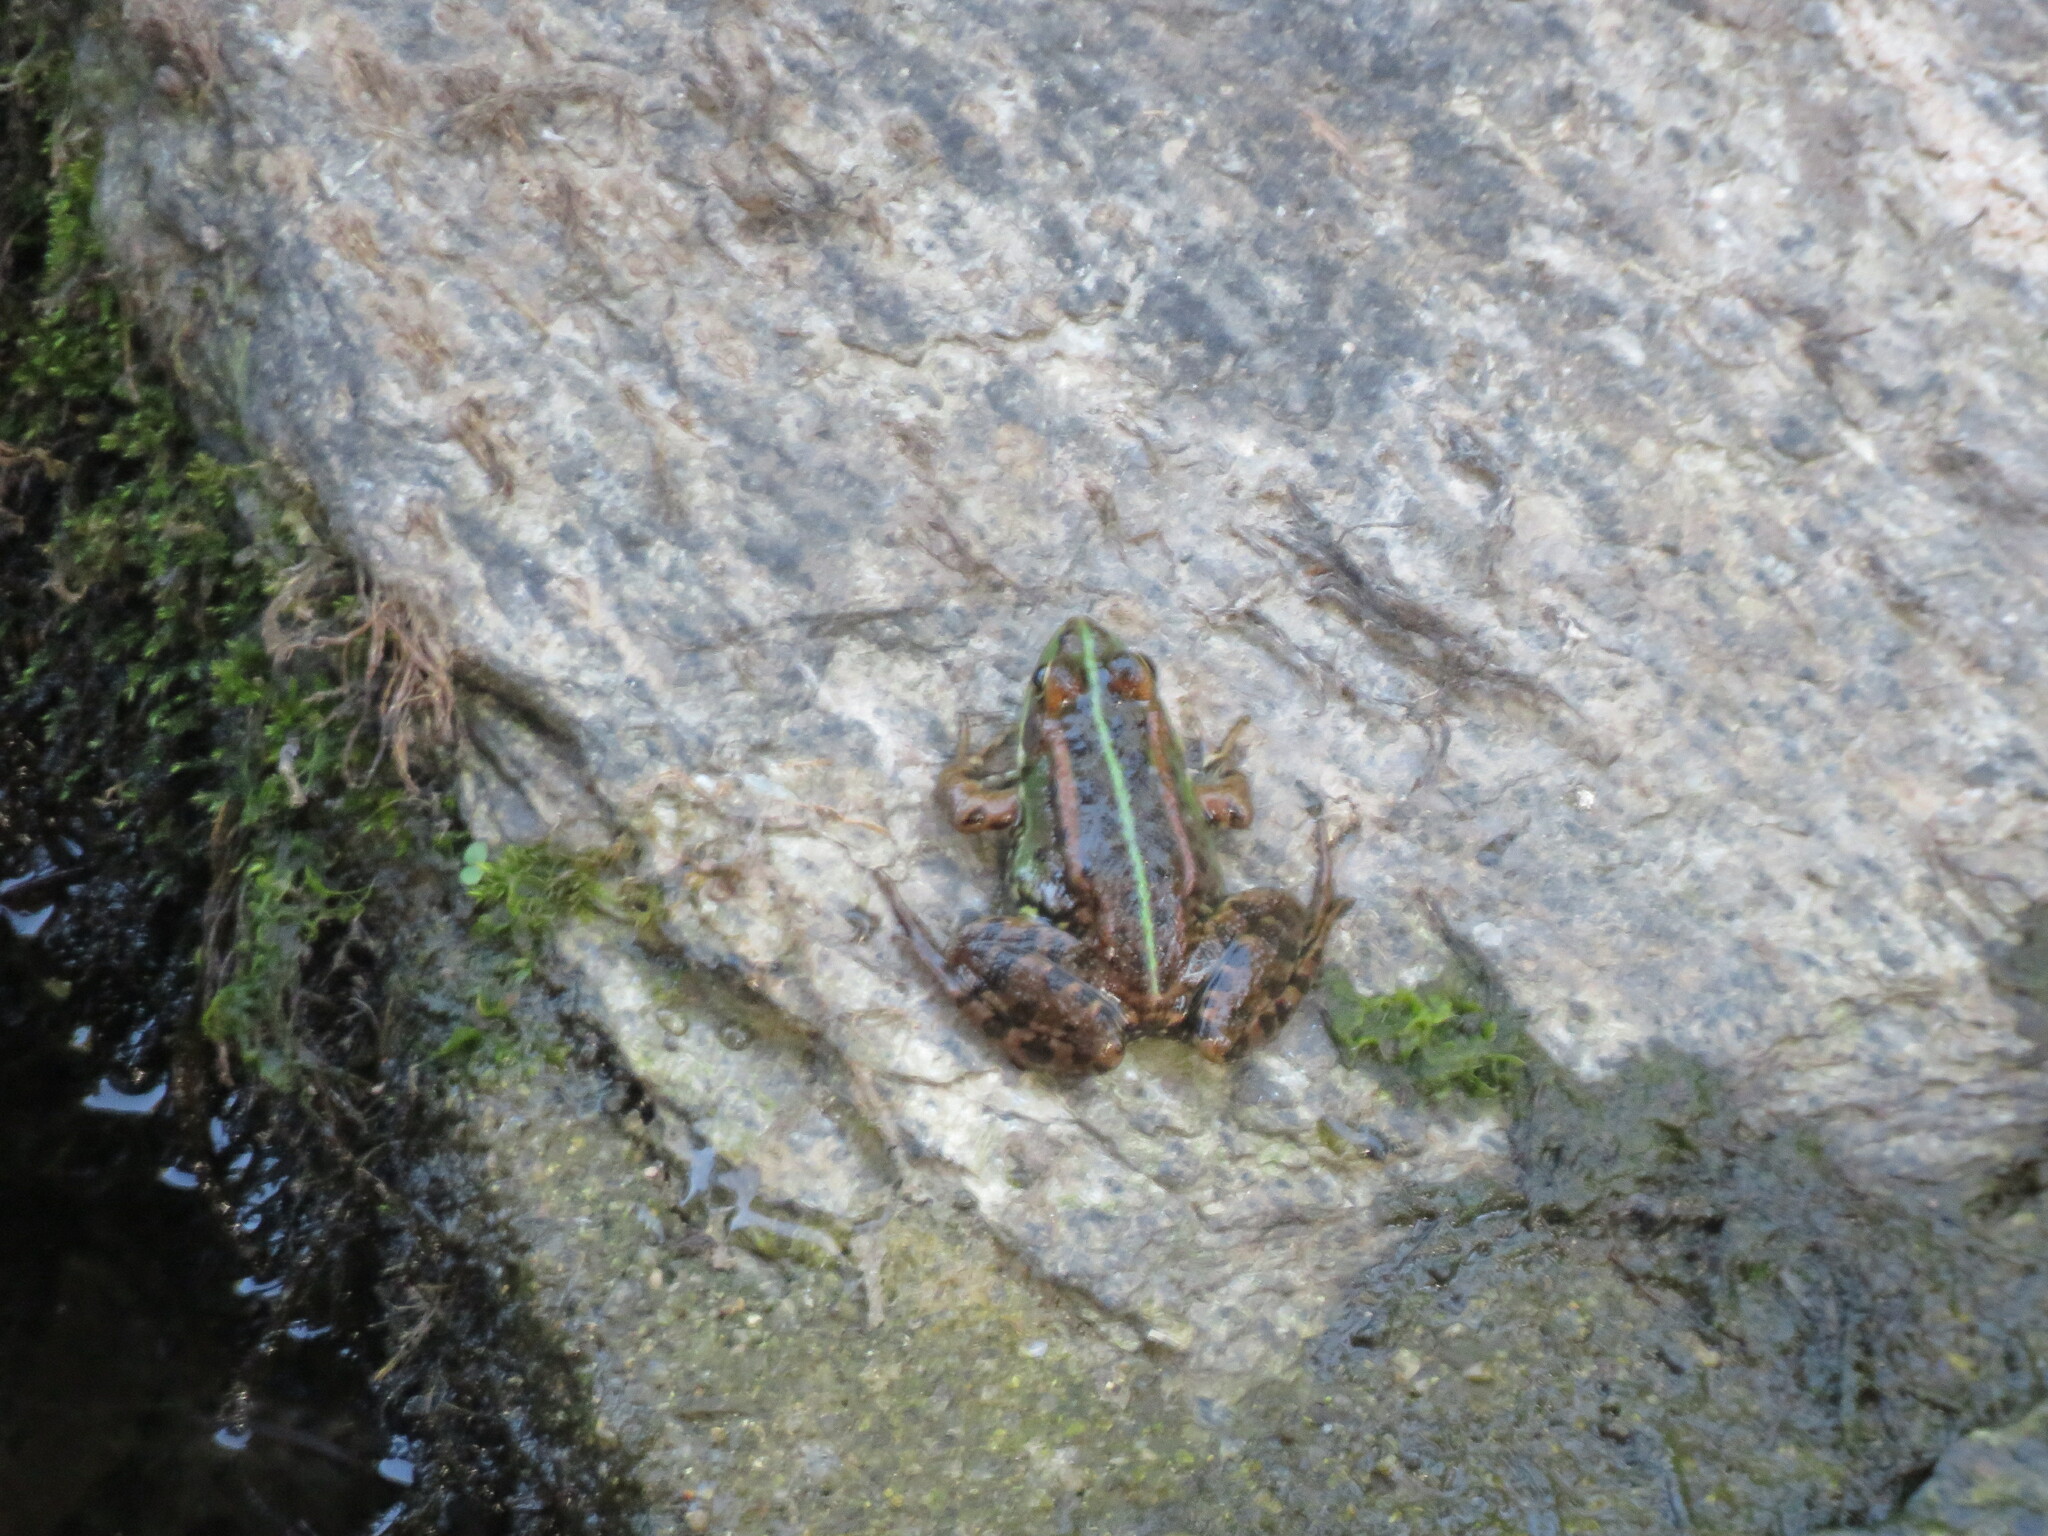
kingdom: Animalia
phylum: Chordata
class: Amphibia
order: Anura
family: Ranidae
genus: Pelophylax
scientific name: Pelophylax perezi
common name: Perez's frog
